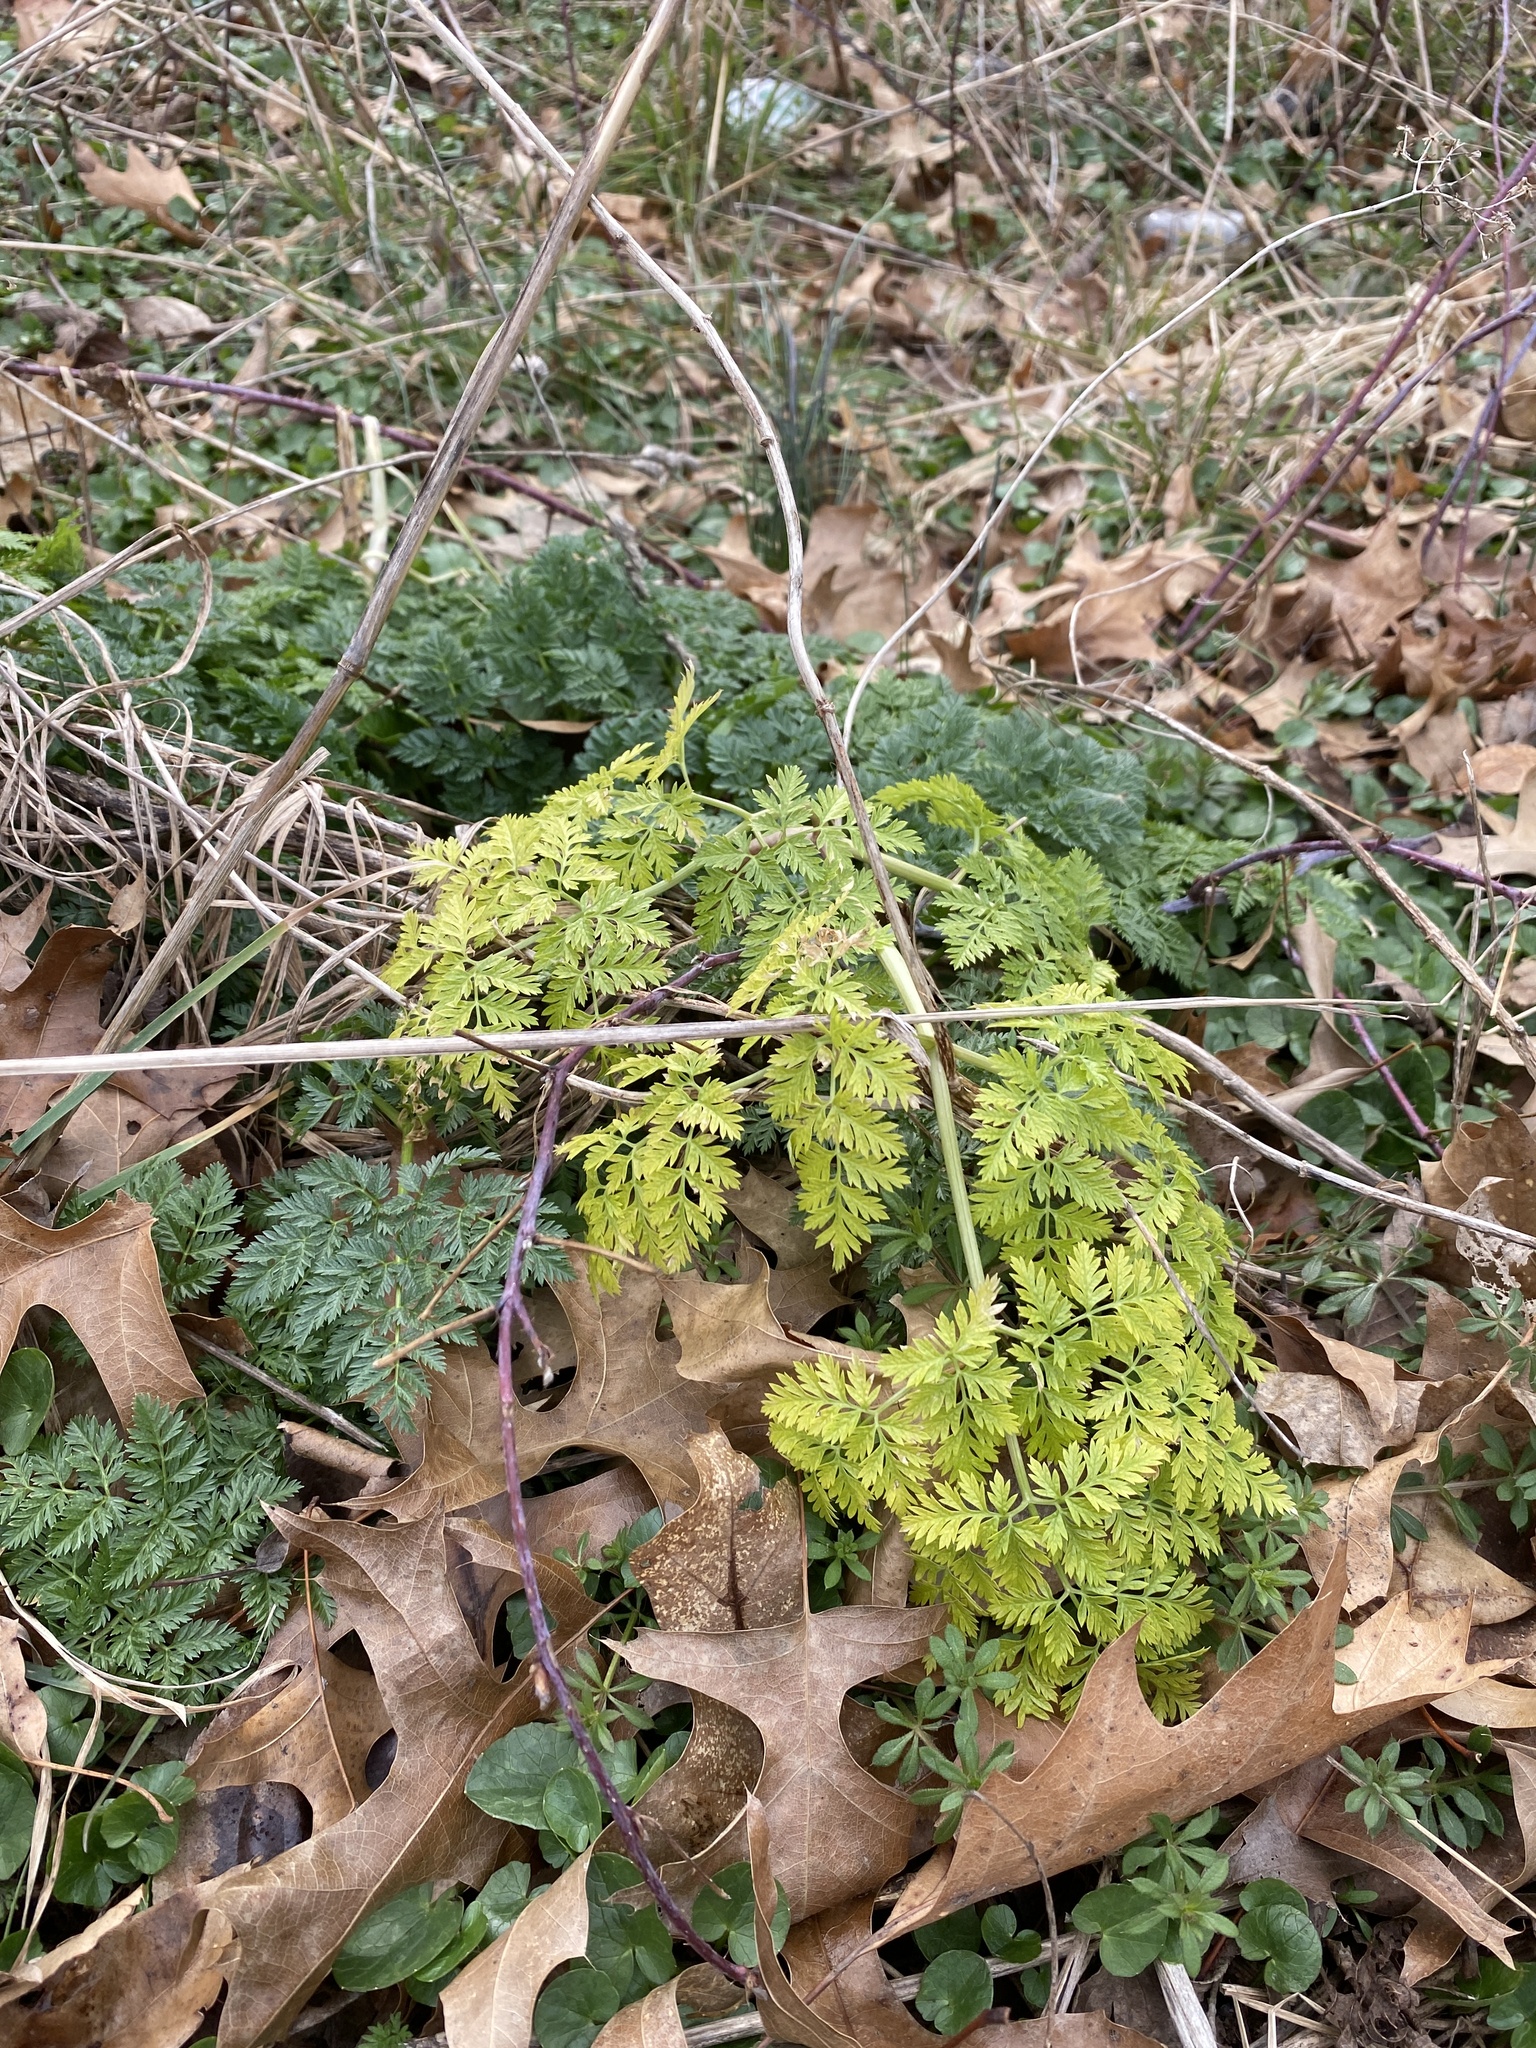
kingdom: Plantae
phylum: Tracheophyta
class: Magnoliopsida
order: Apiales
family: Apiaceae
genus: Conium
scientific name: Conium maculatum
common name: Hemlock
